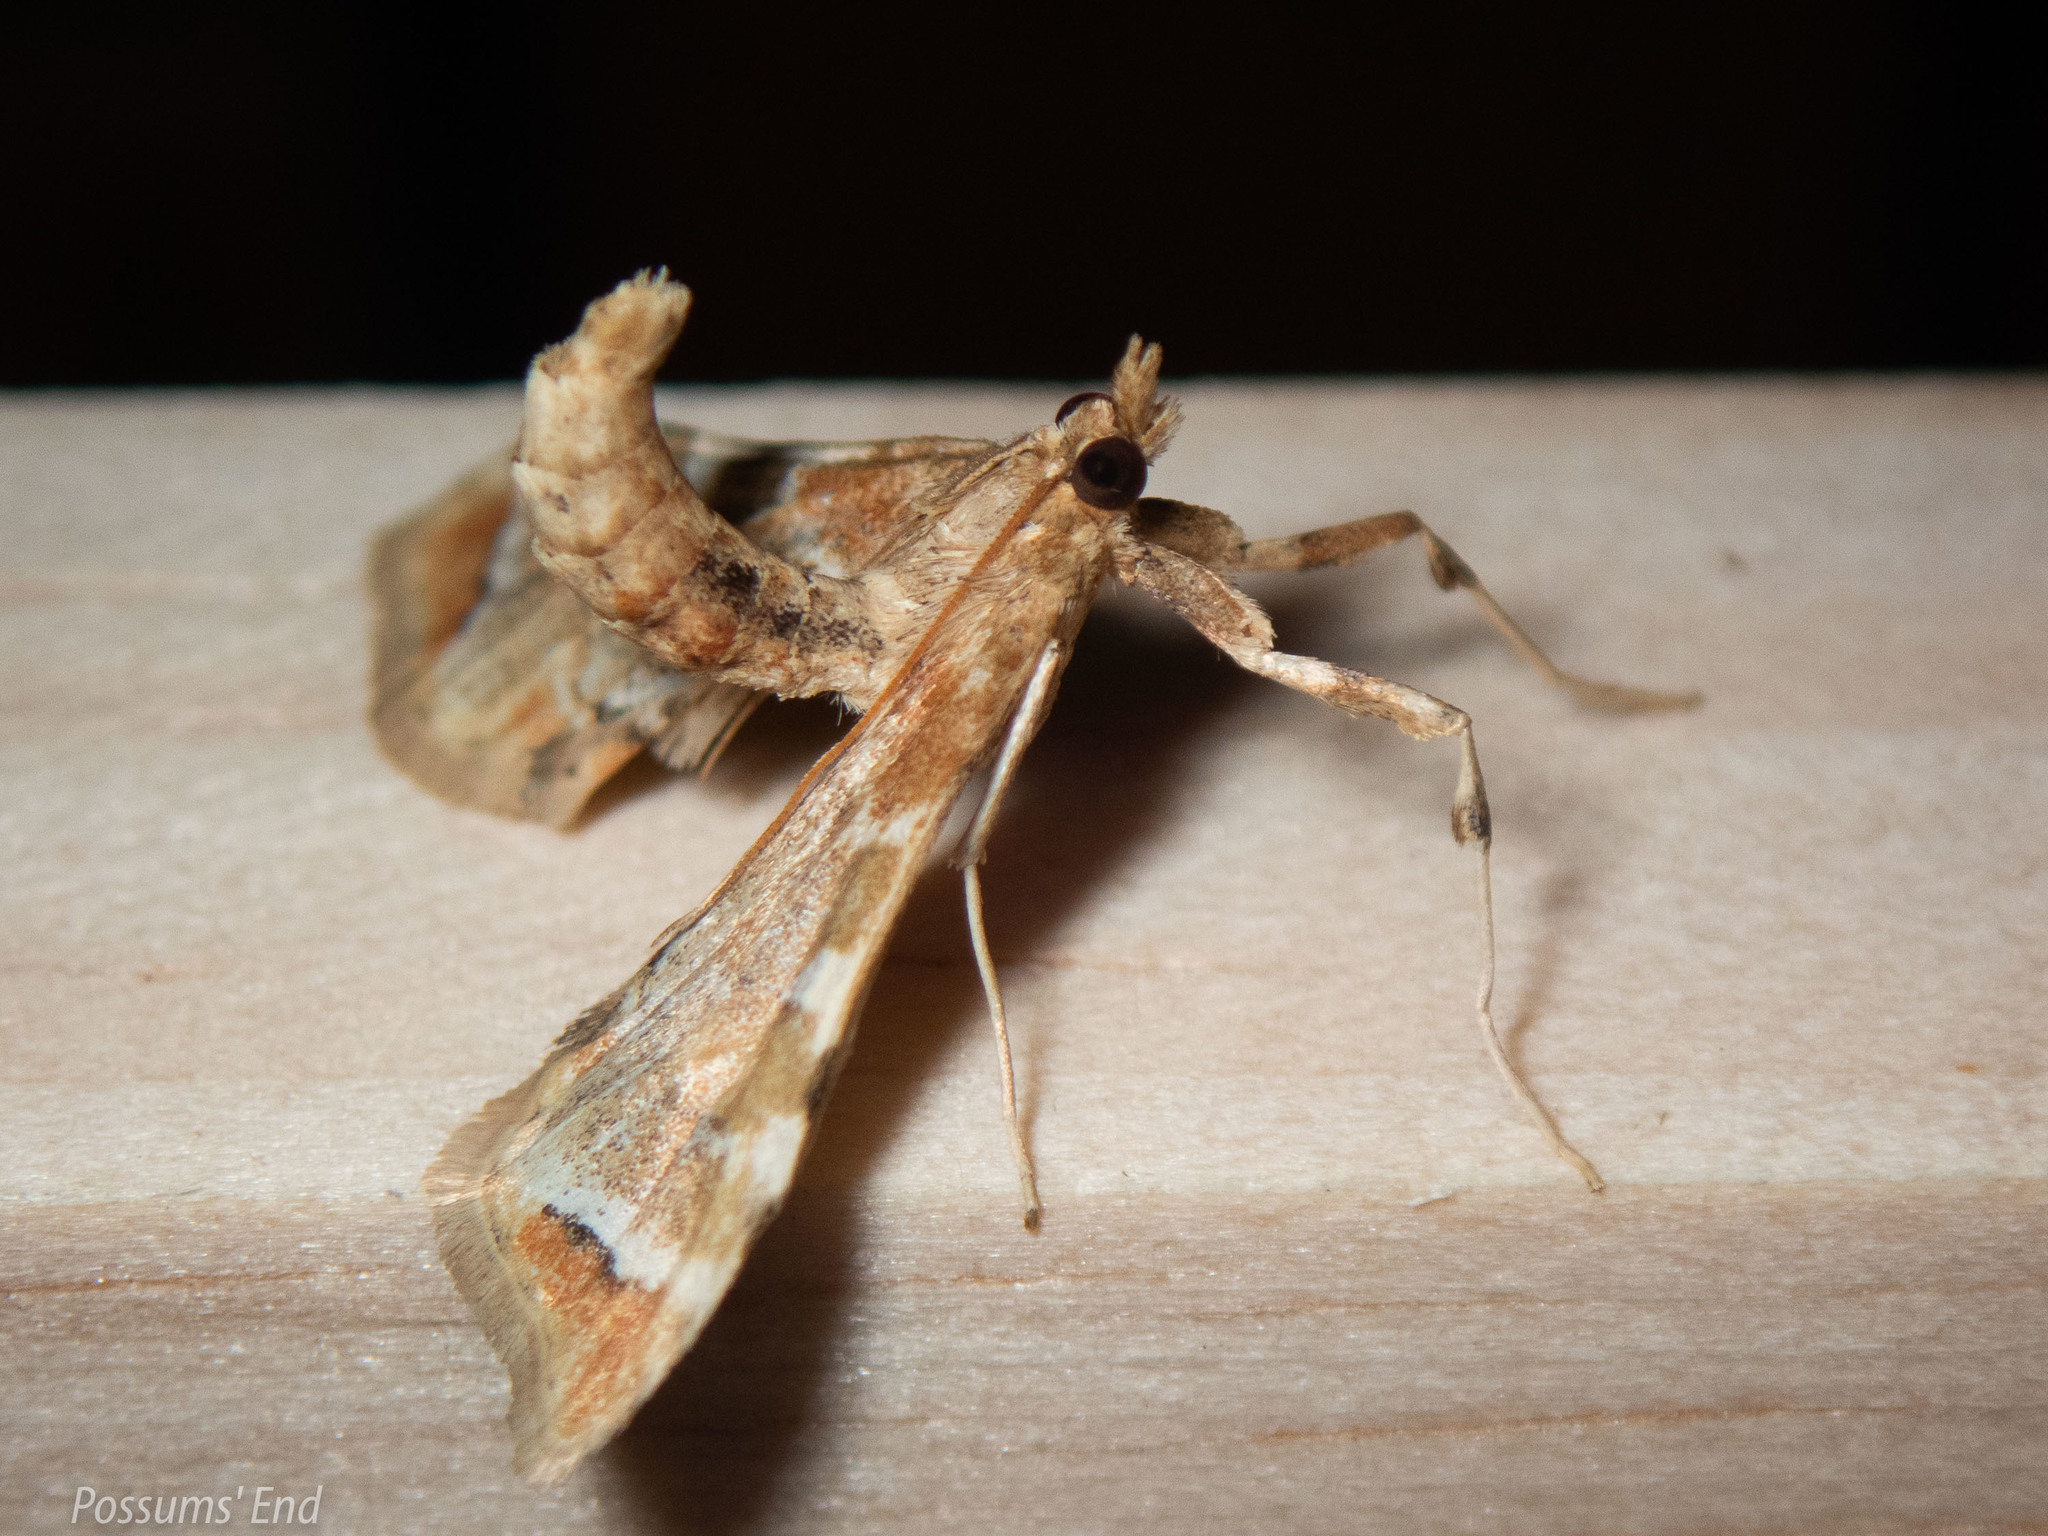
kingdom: Animalia
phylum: Arthropoda
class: Insecta
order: Lepidoptera
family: Crambidae
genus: Sceliodes
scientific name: Sceliodes cordalis
